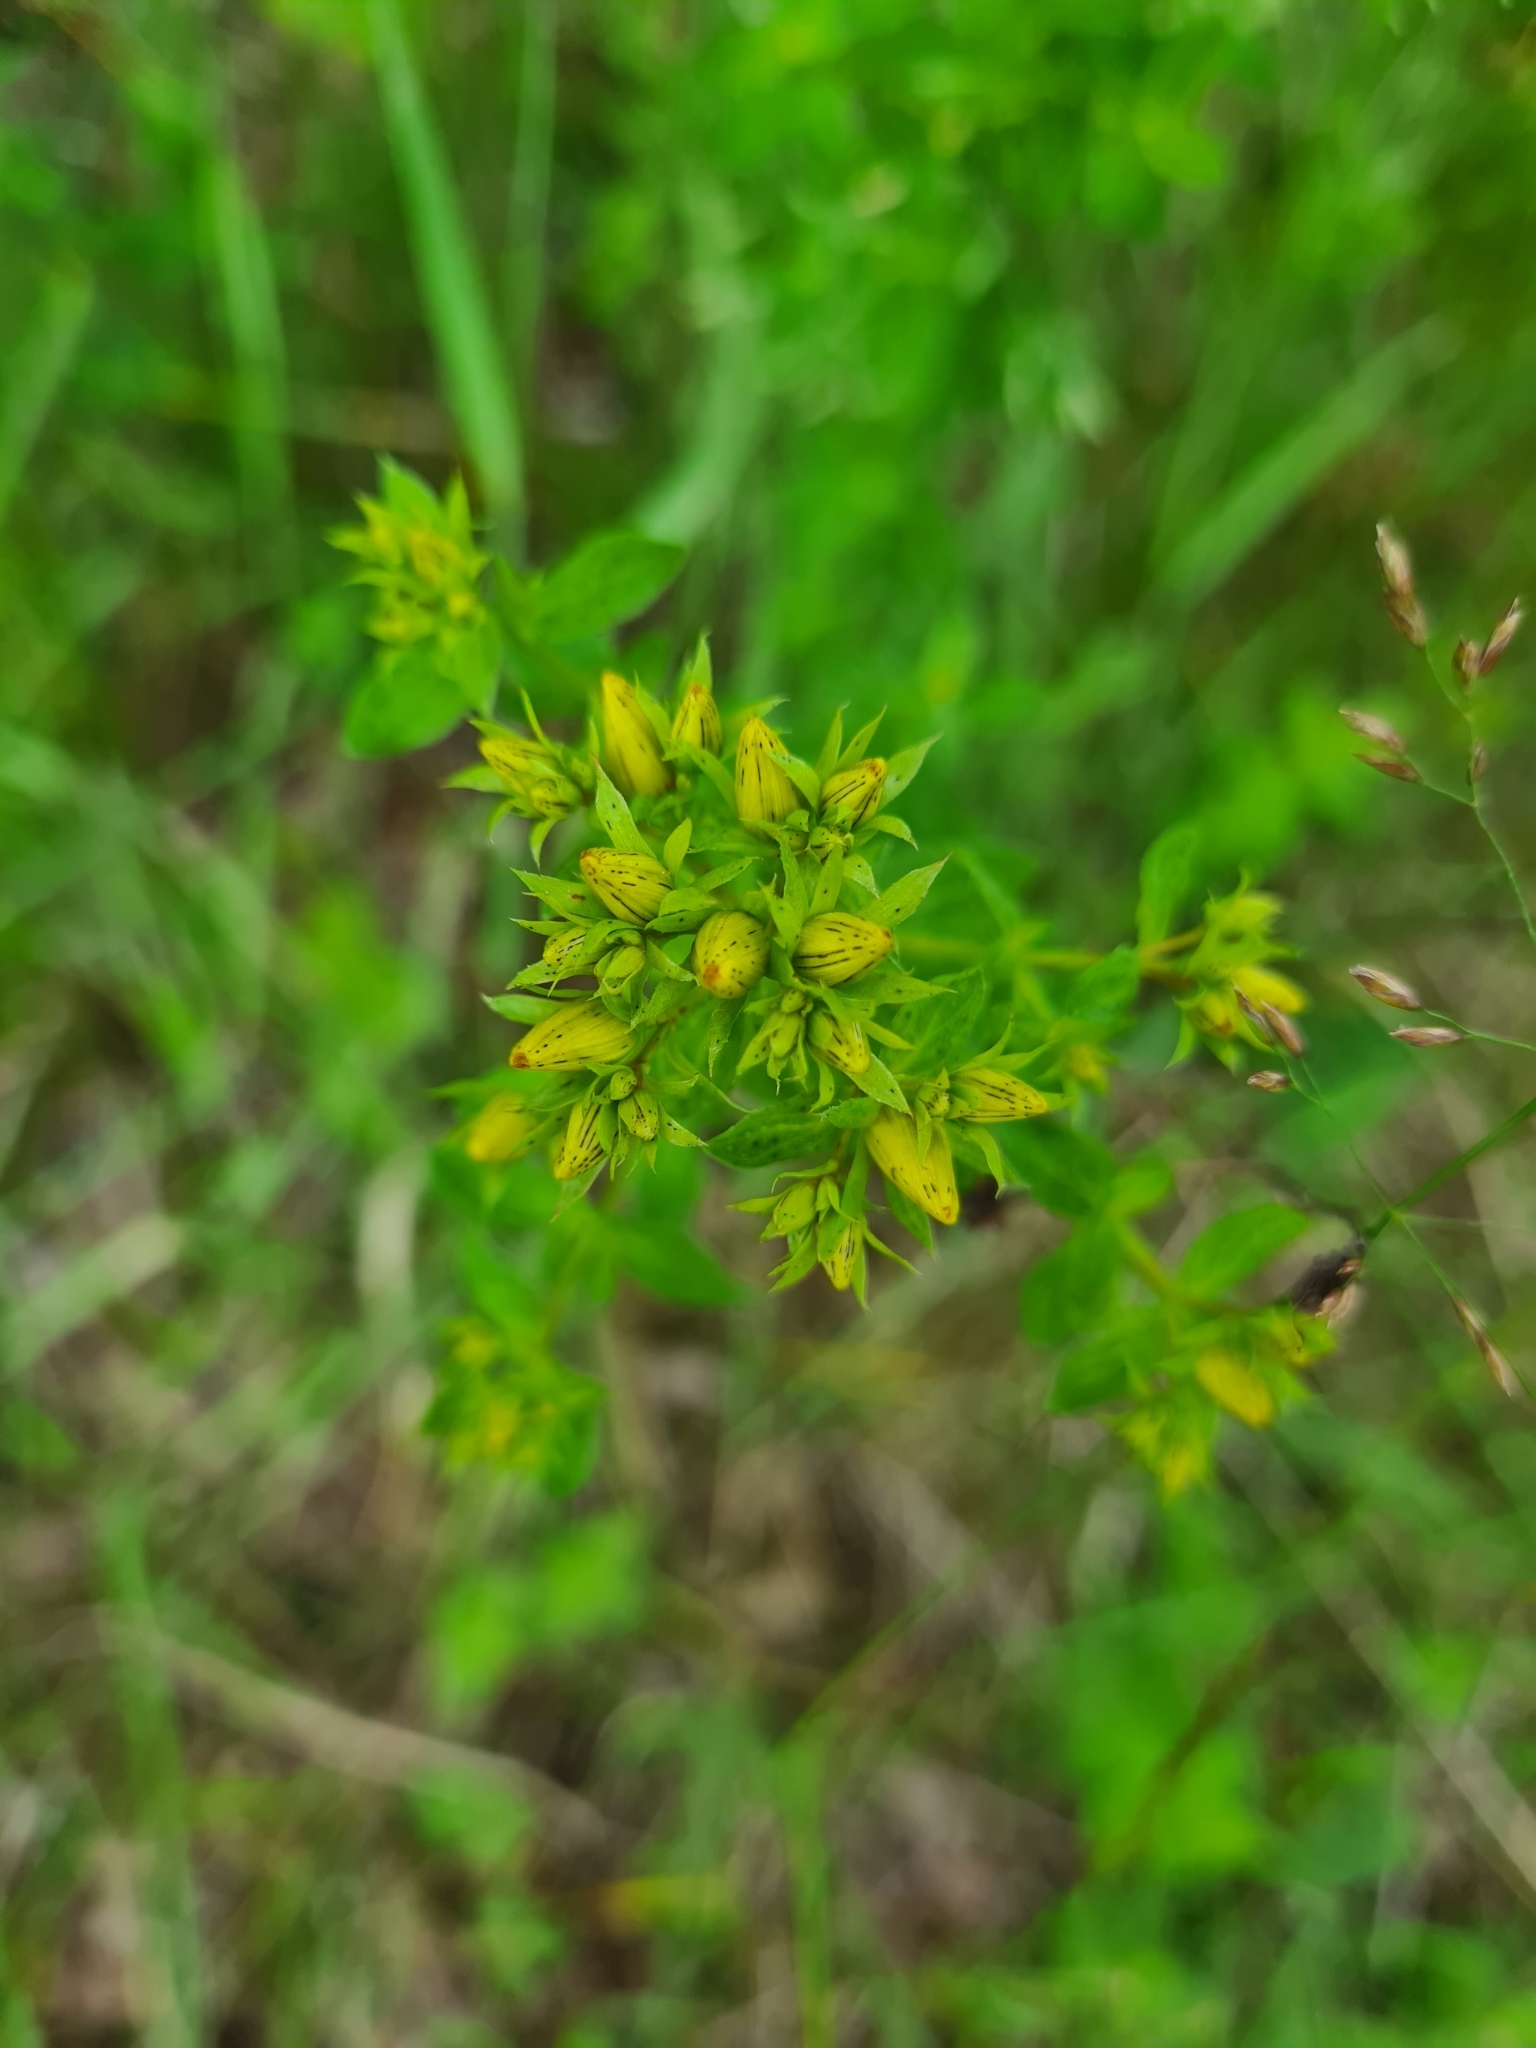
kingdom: Plantae
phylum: Tracheophyta
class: Magnoliopsida
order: Malpighiales
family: Hypericaceae
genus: Hypericum
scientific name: Hypericum desetangsii
